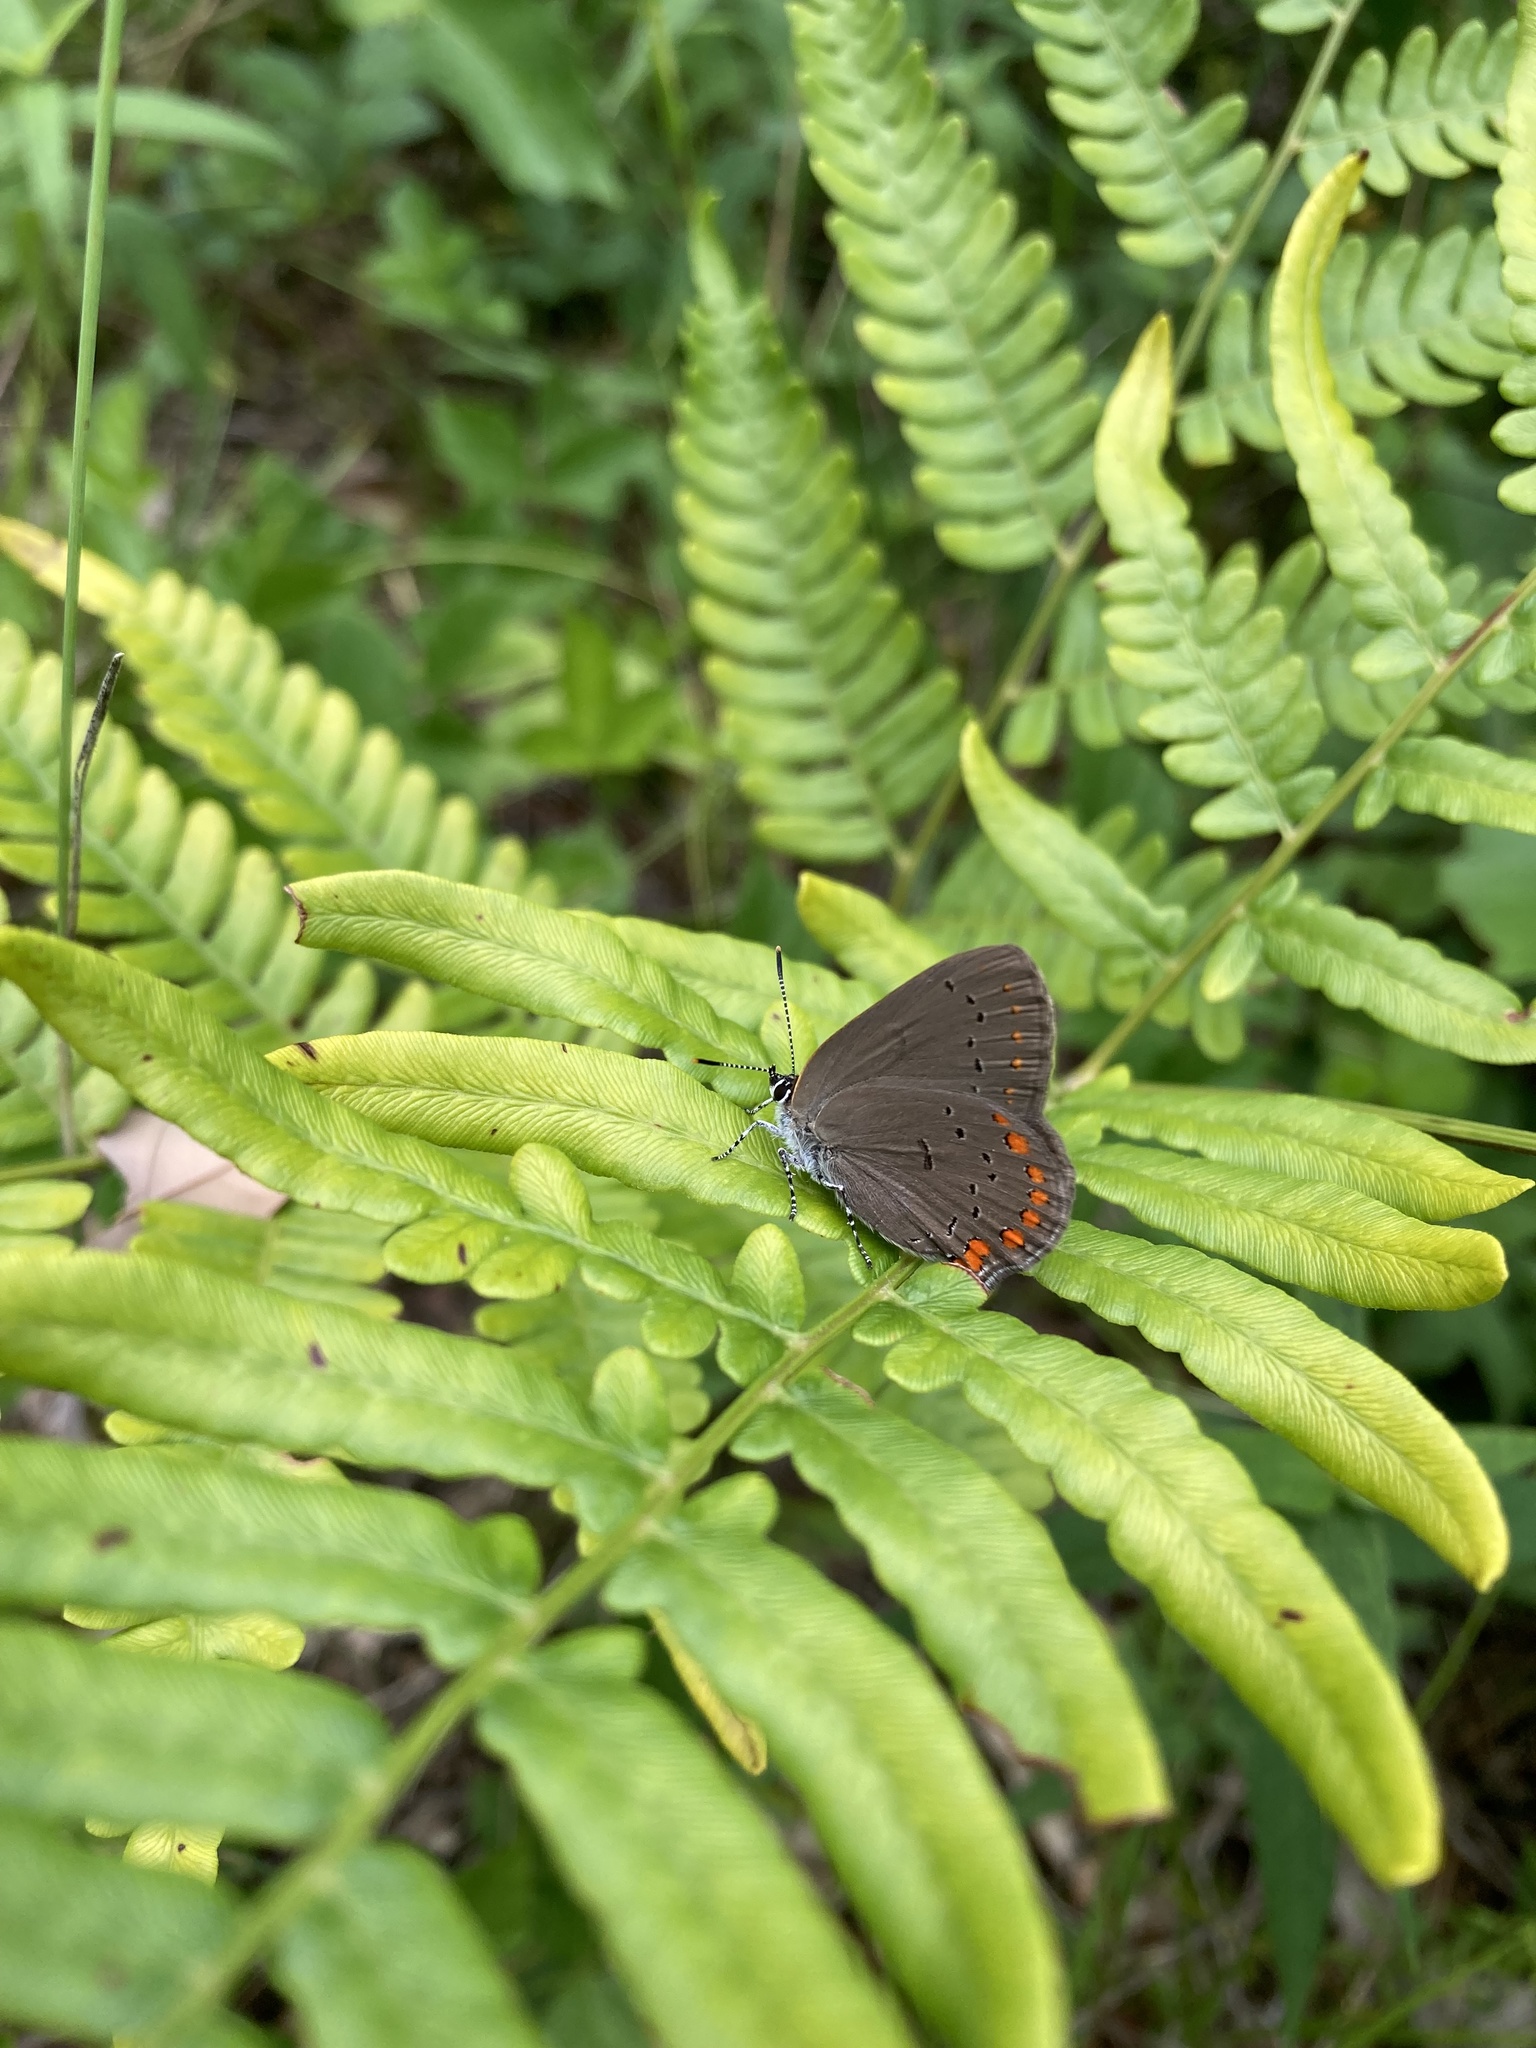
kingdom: Animalia
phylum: Arthropoda
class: Insecta
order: Lepidoptera
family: Lycaenidae
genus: Harkenclenus
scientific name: Harkenclenus titus
